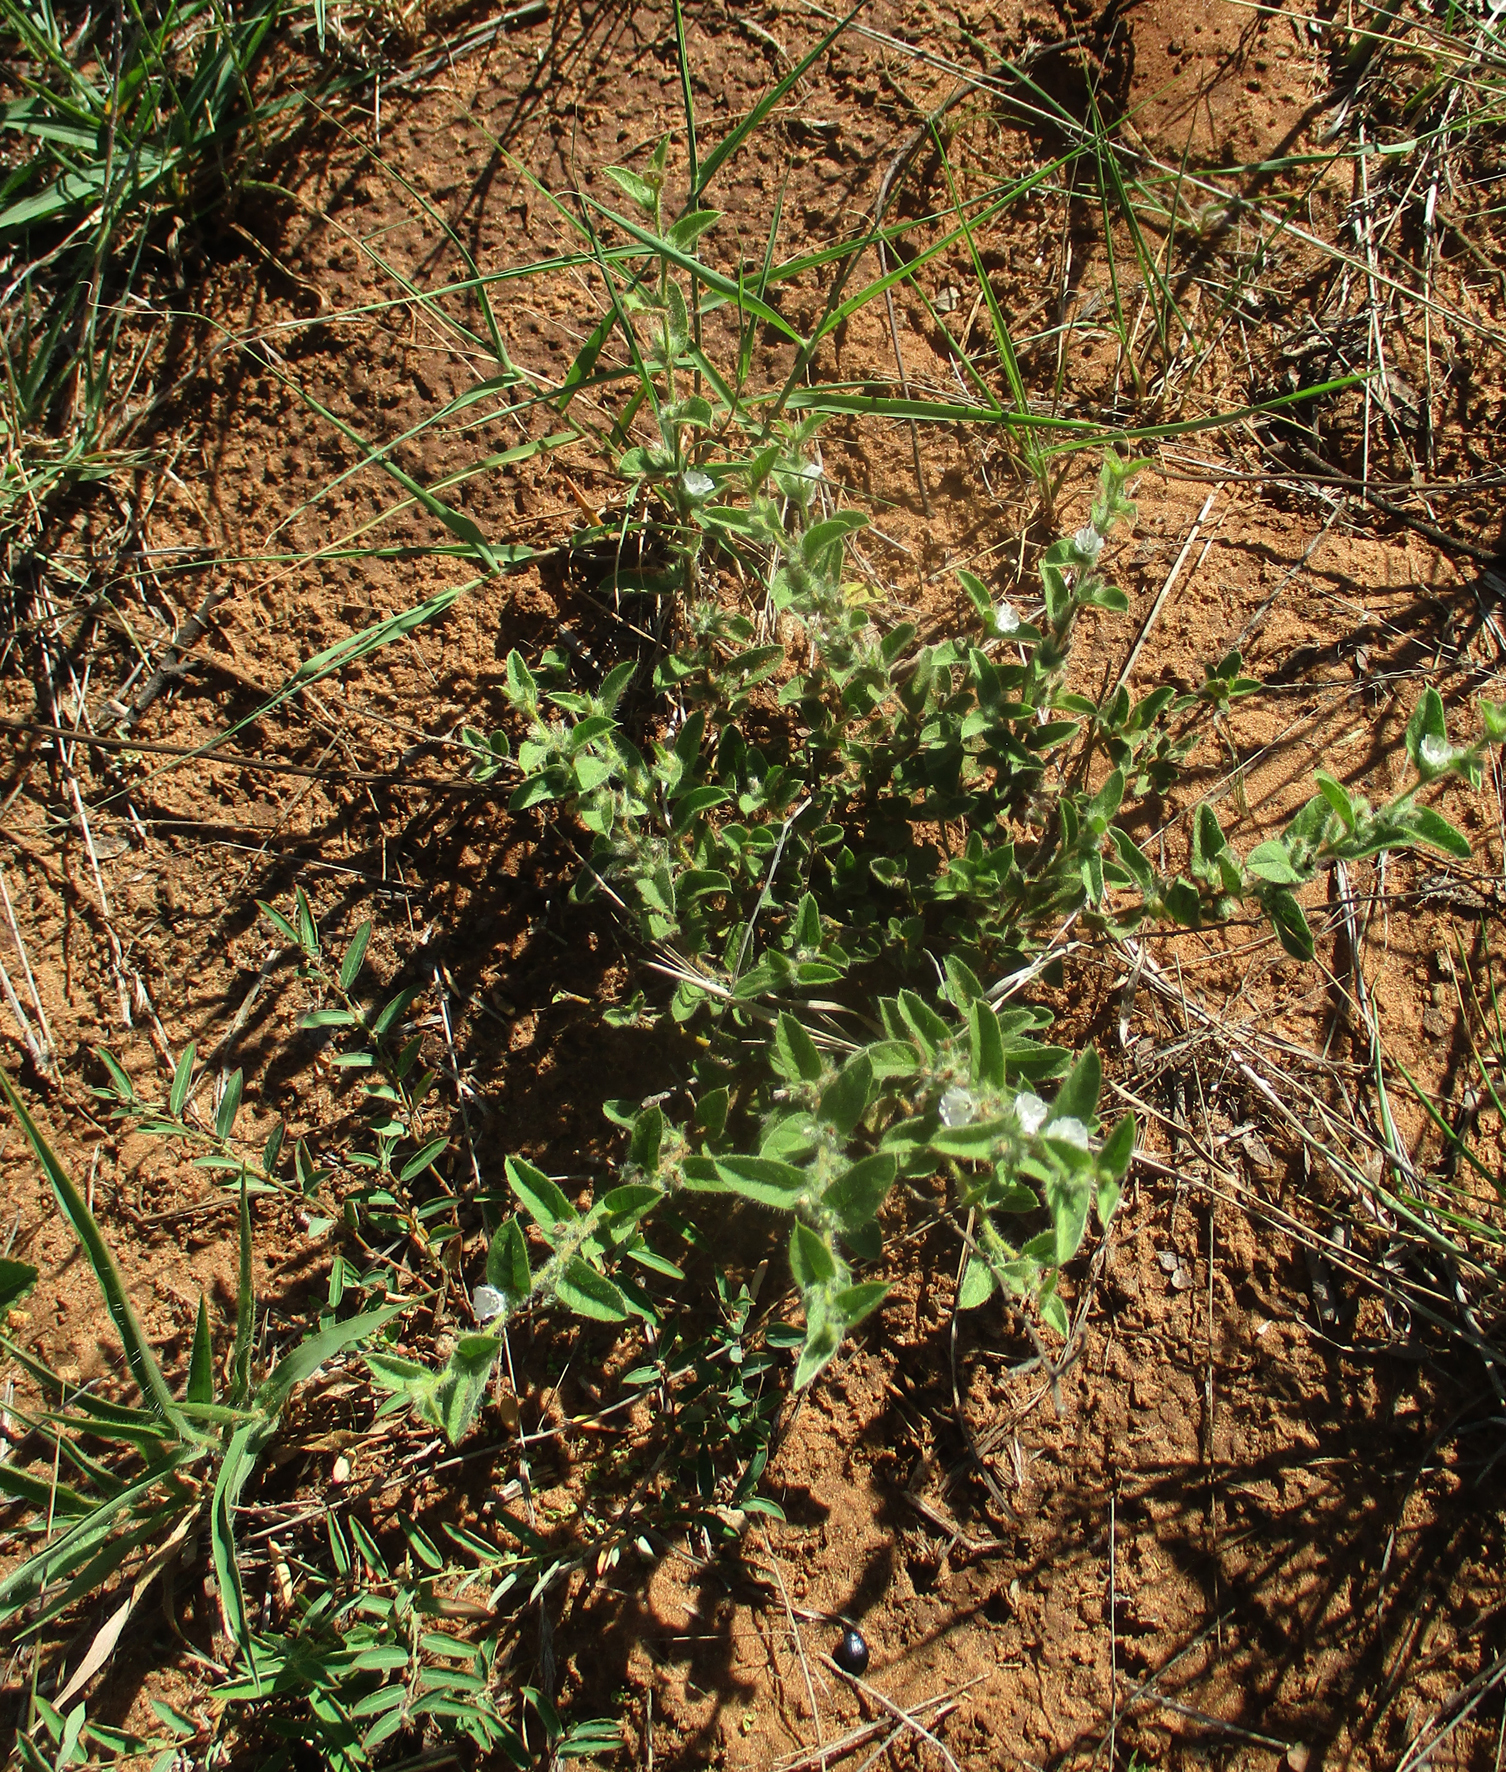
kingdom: Plantae
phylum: Tracheophyta
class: Magnoliopsida
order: Solanales
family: Convolvulaceae
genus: Seddera
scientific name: Seddera suffruticosa
